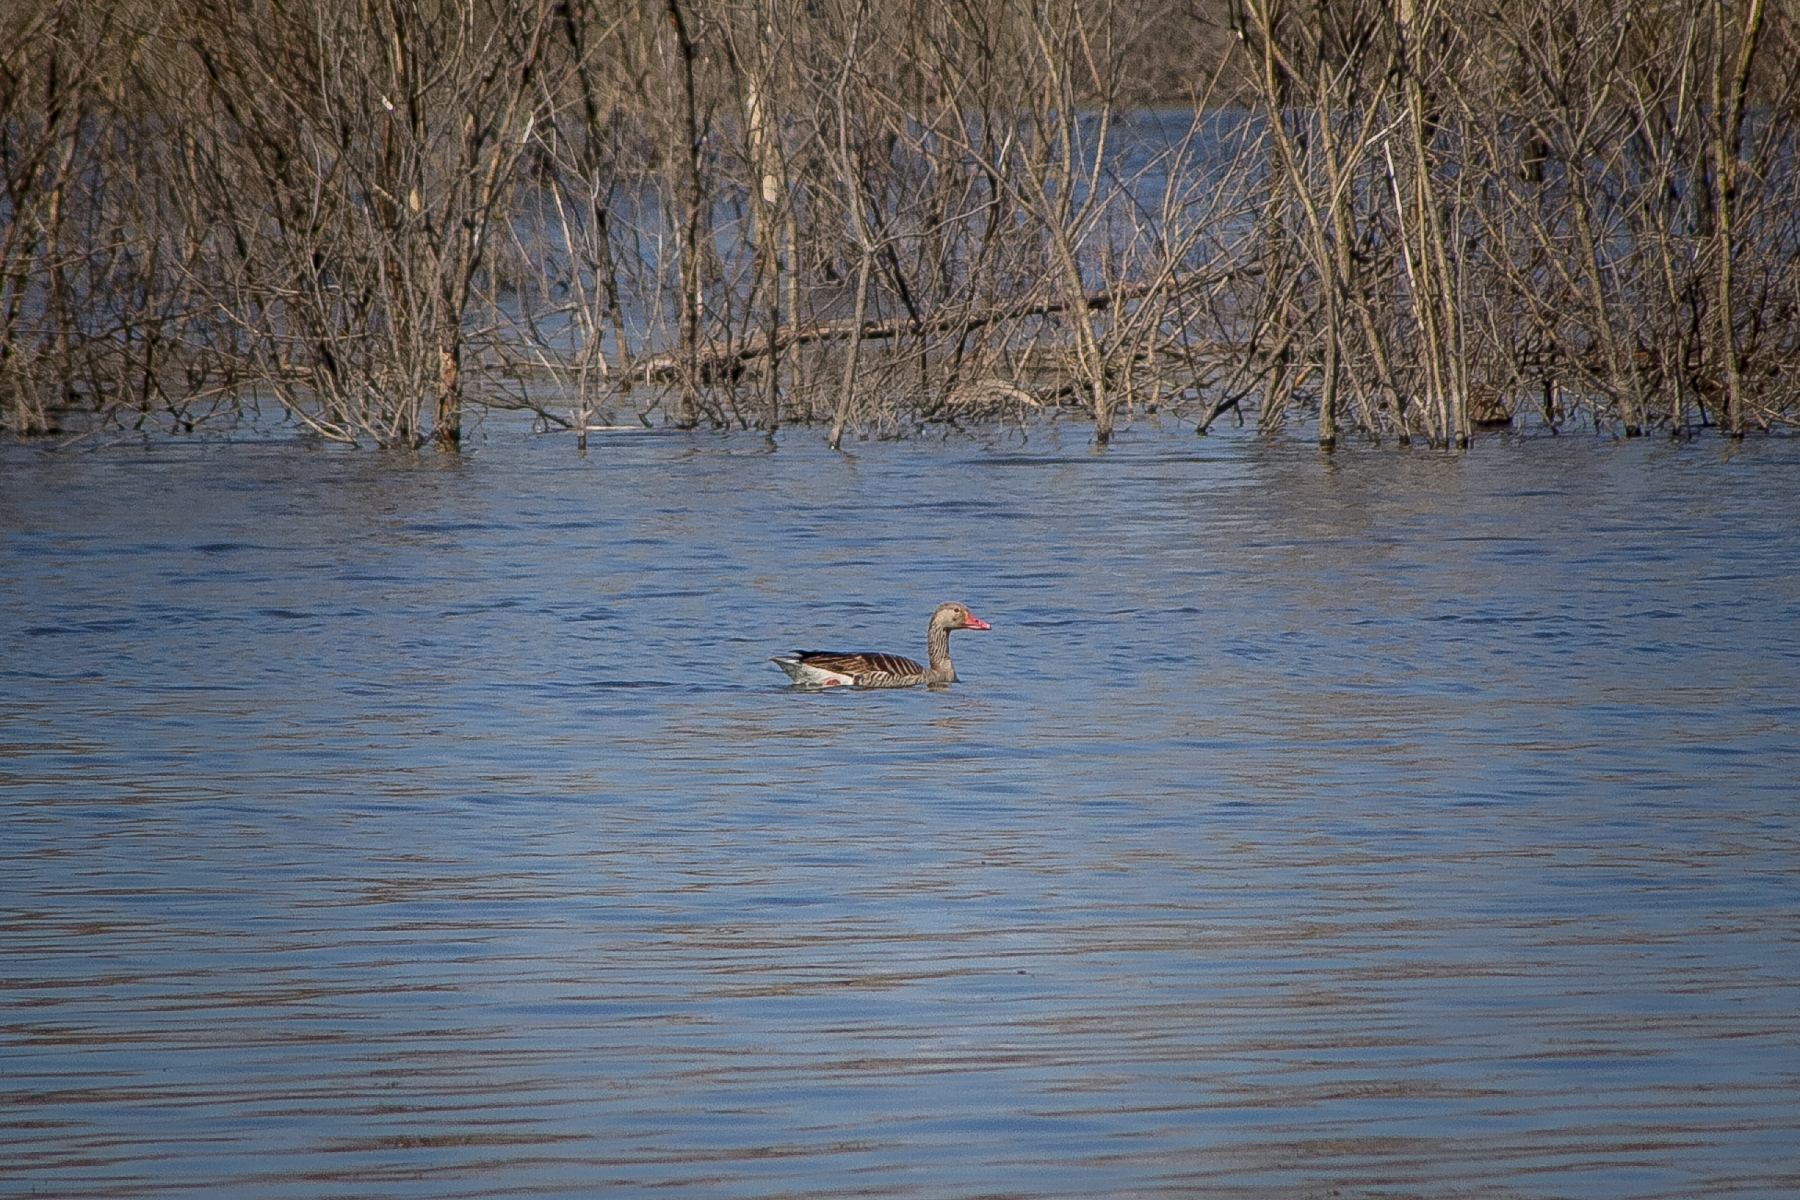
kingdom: Animalia
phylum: Chordata
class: Aves
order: Anseriformes
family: Anatidae
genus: Anser
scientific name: Anser anser
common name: Greylag goose
